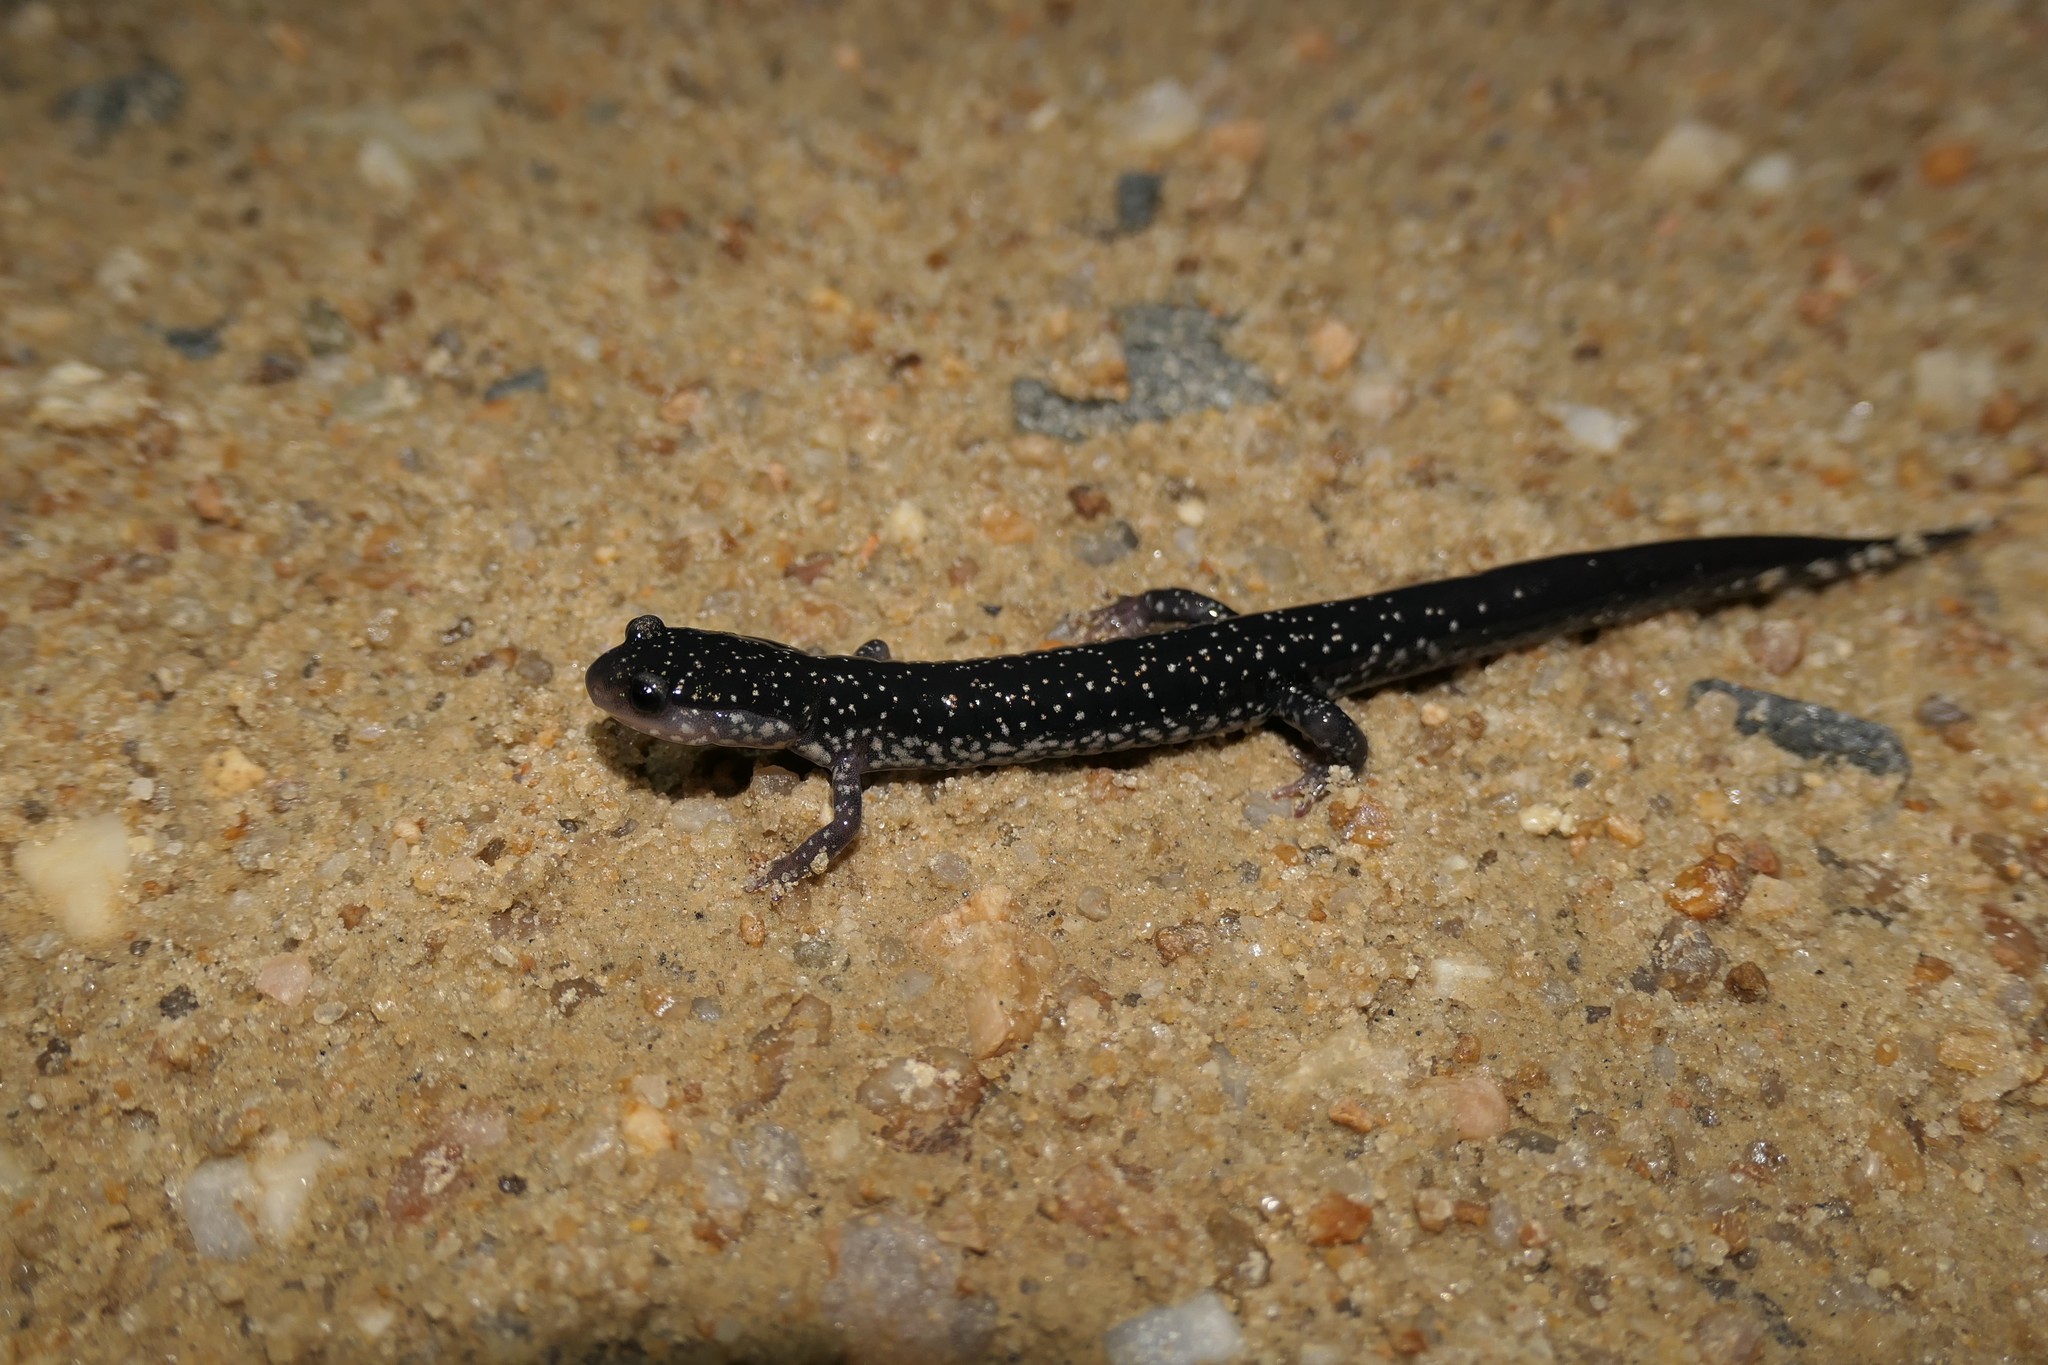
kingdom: Animalia
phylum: Chordata
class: Amphibia
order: Caudata
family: Plethodontidae
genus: Plethodon
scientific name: Plethodon chlorobryonis
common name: Atlantic coast slimy salamander
